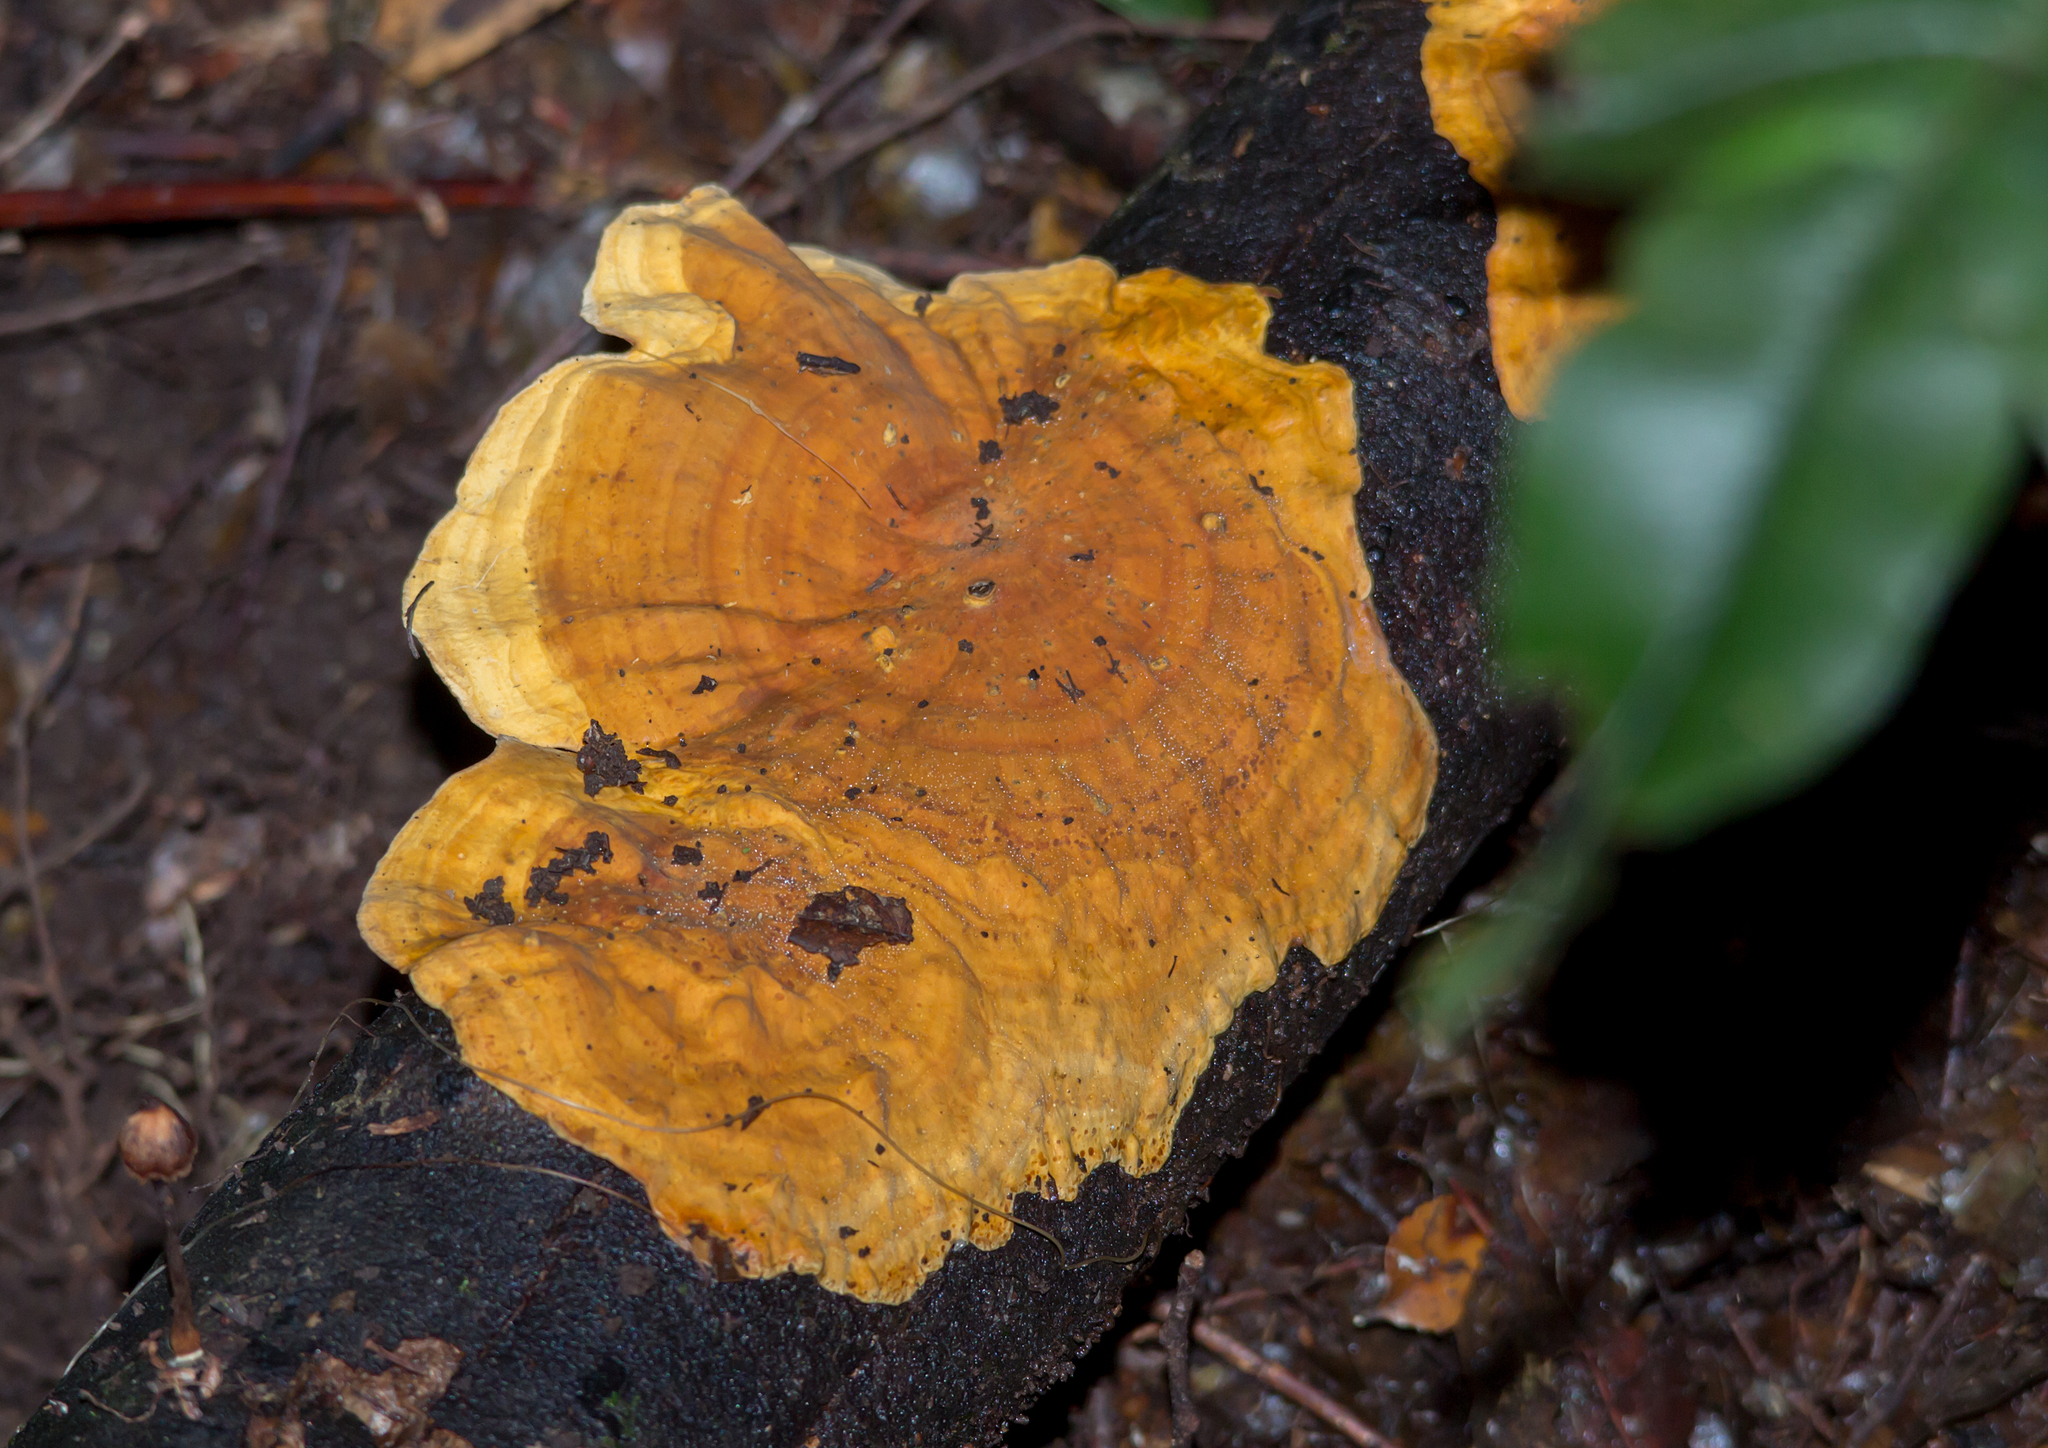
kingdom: Fungi
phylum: Basidiomycota
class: Agaricomycetes
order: Russulales
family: Stereaceae
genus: Stereum
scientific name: Stereum versicolor
